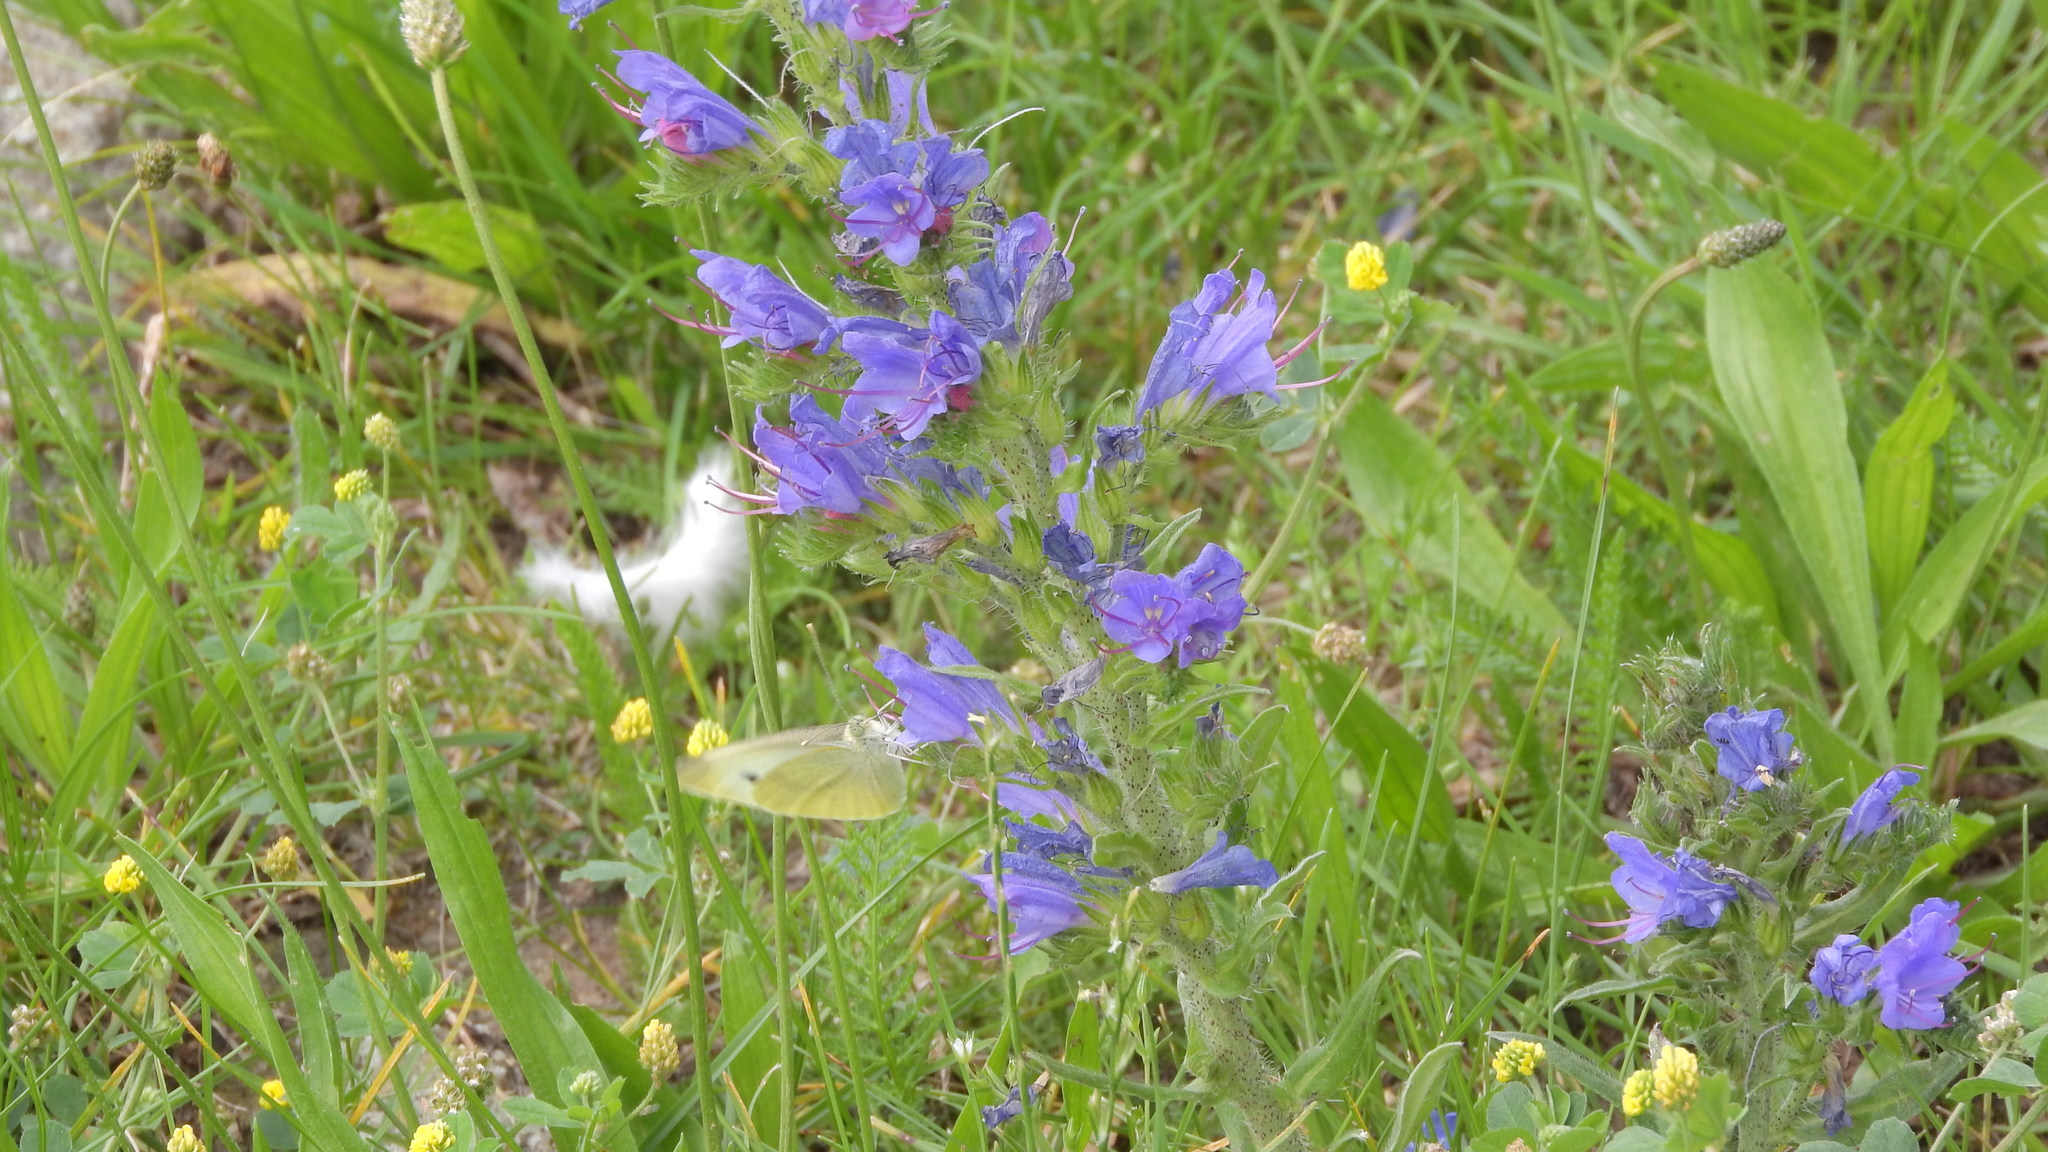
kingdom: Animalia
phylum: Arthropoda
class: Insecta
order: Lepidoptera
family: Pieridae
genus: Pieris
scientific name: Pieris rapae
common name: Small white
